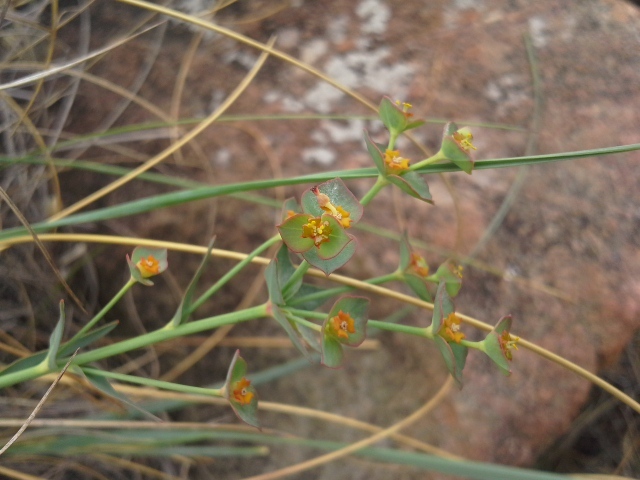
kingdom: Plantae
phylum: Tracheophyta
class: Magnoliopsida
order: Malpighiales
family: Euphorbiaceae
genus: Euphorbia
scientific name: Euphorbia striata
